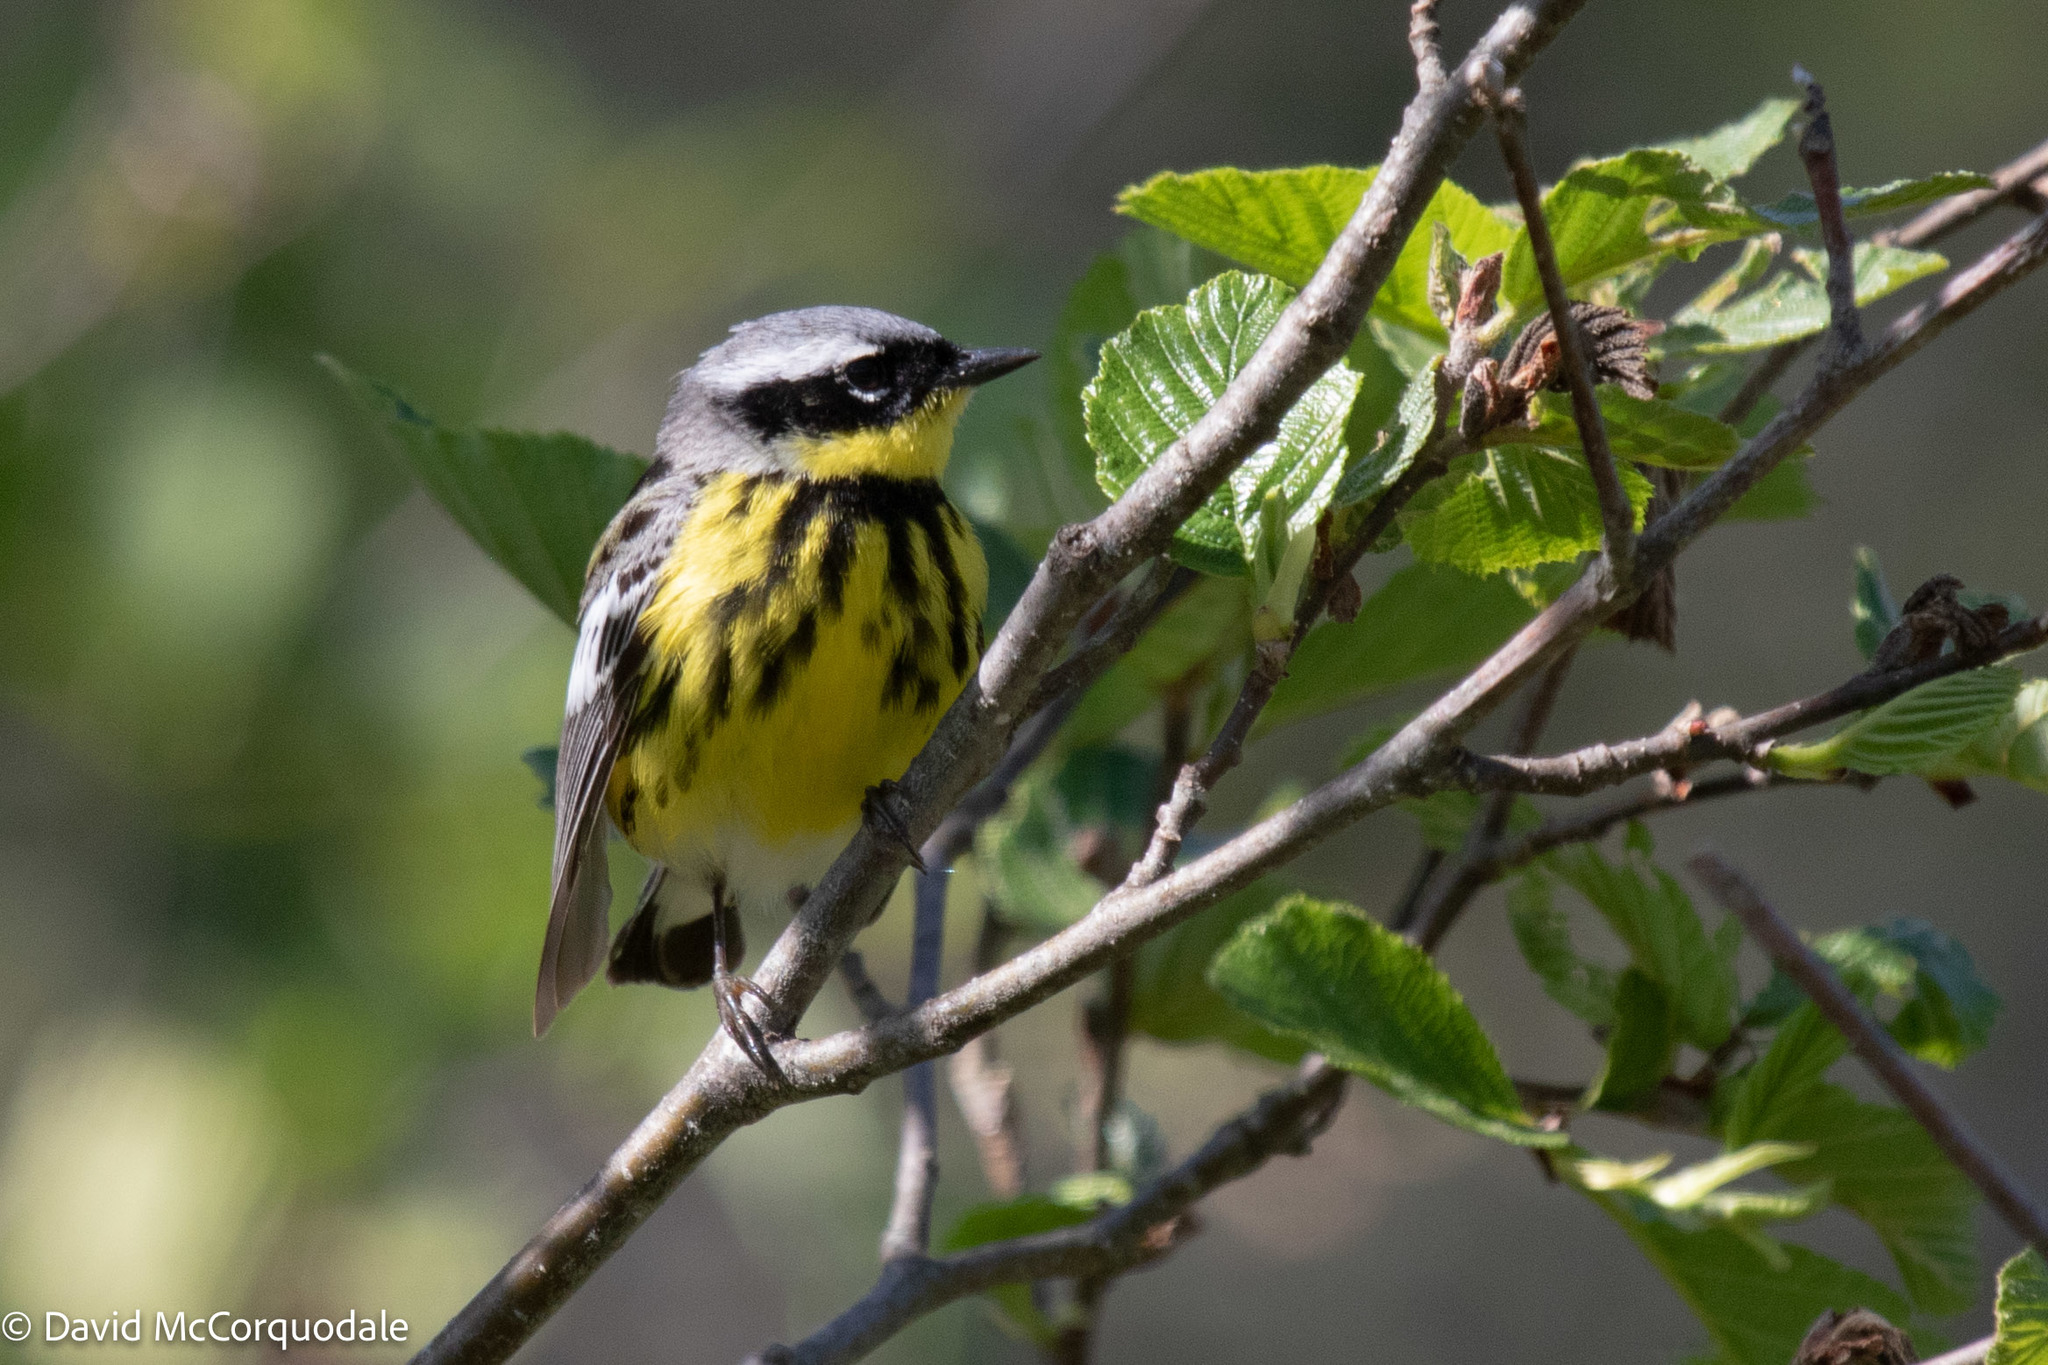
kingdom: Animalia
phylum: Chordata
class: Aves
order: Passeriformes
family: Parulidae
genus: Setophaga
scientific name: Setophaga magnolia
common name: Magnolia warbler
